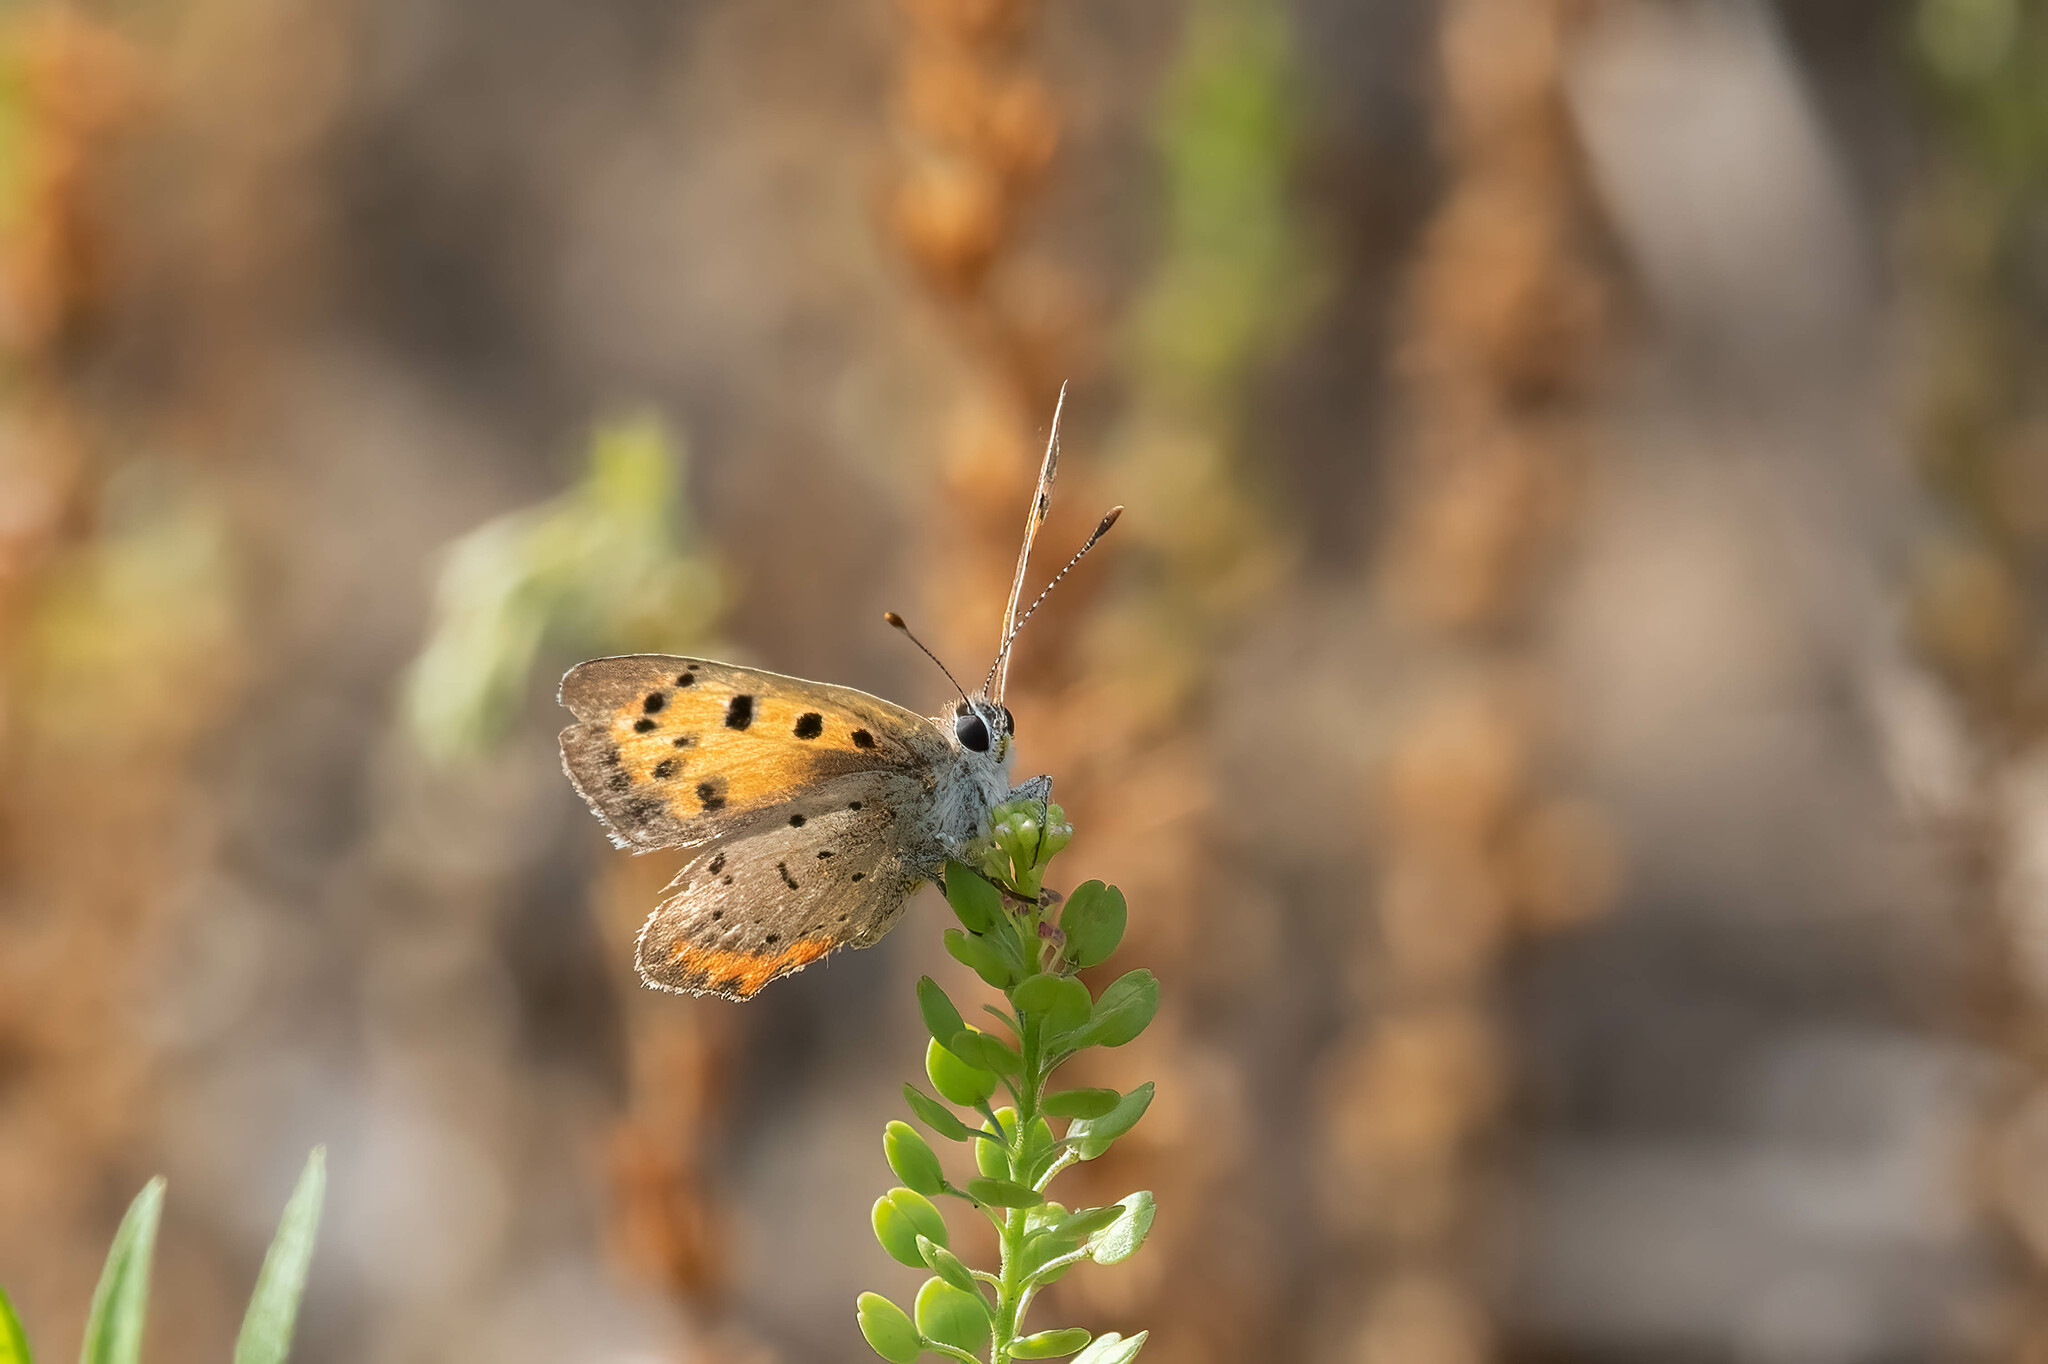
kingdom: Animalia
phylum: Arthropoda
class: Insecta
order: Lepidoptera
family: Lycaenidae
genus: Lycaena
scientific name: Lycaena hypophlaeas
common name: American copper
